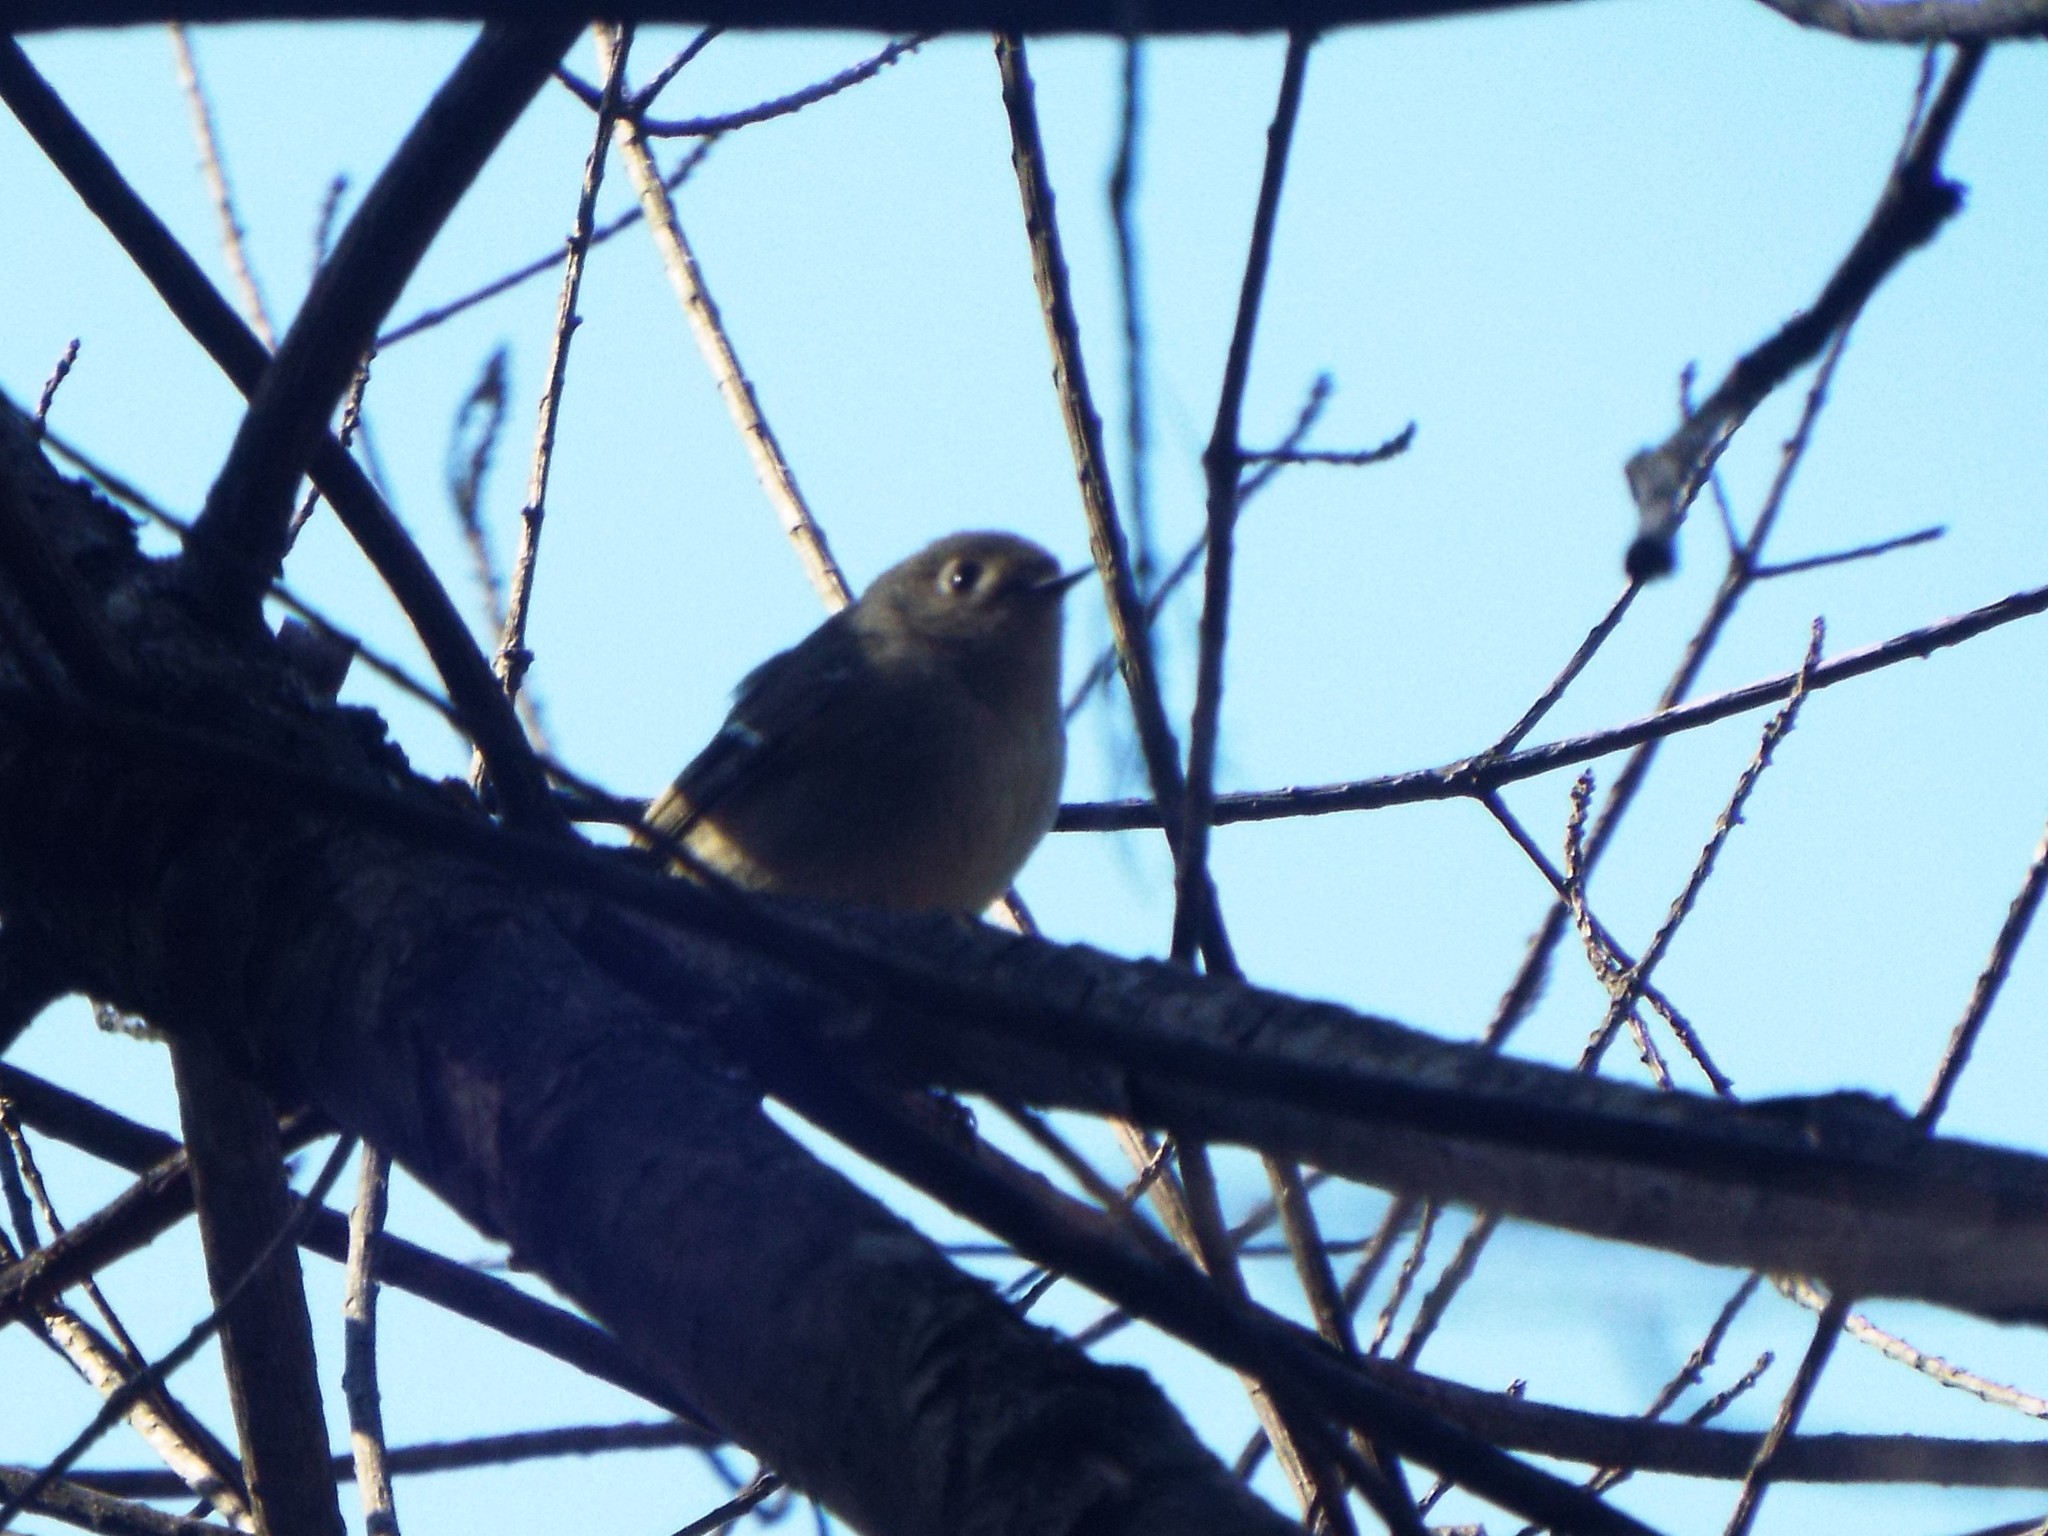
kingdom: Animalia
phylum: Chordata
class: Aves
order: Passeriformes
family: Regulidae
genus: Regulus
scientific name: Regulus calendula
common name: Ruby-crowned kinglet
